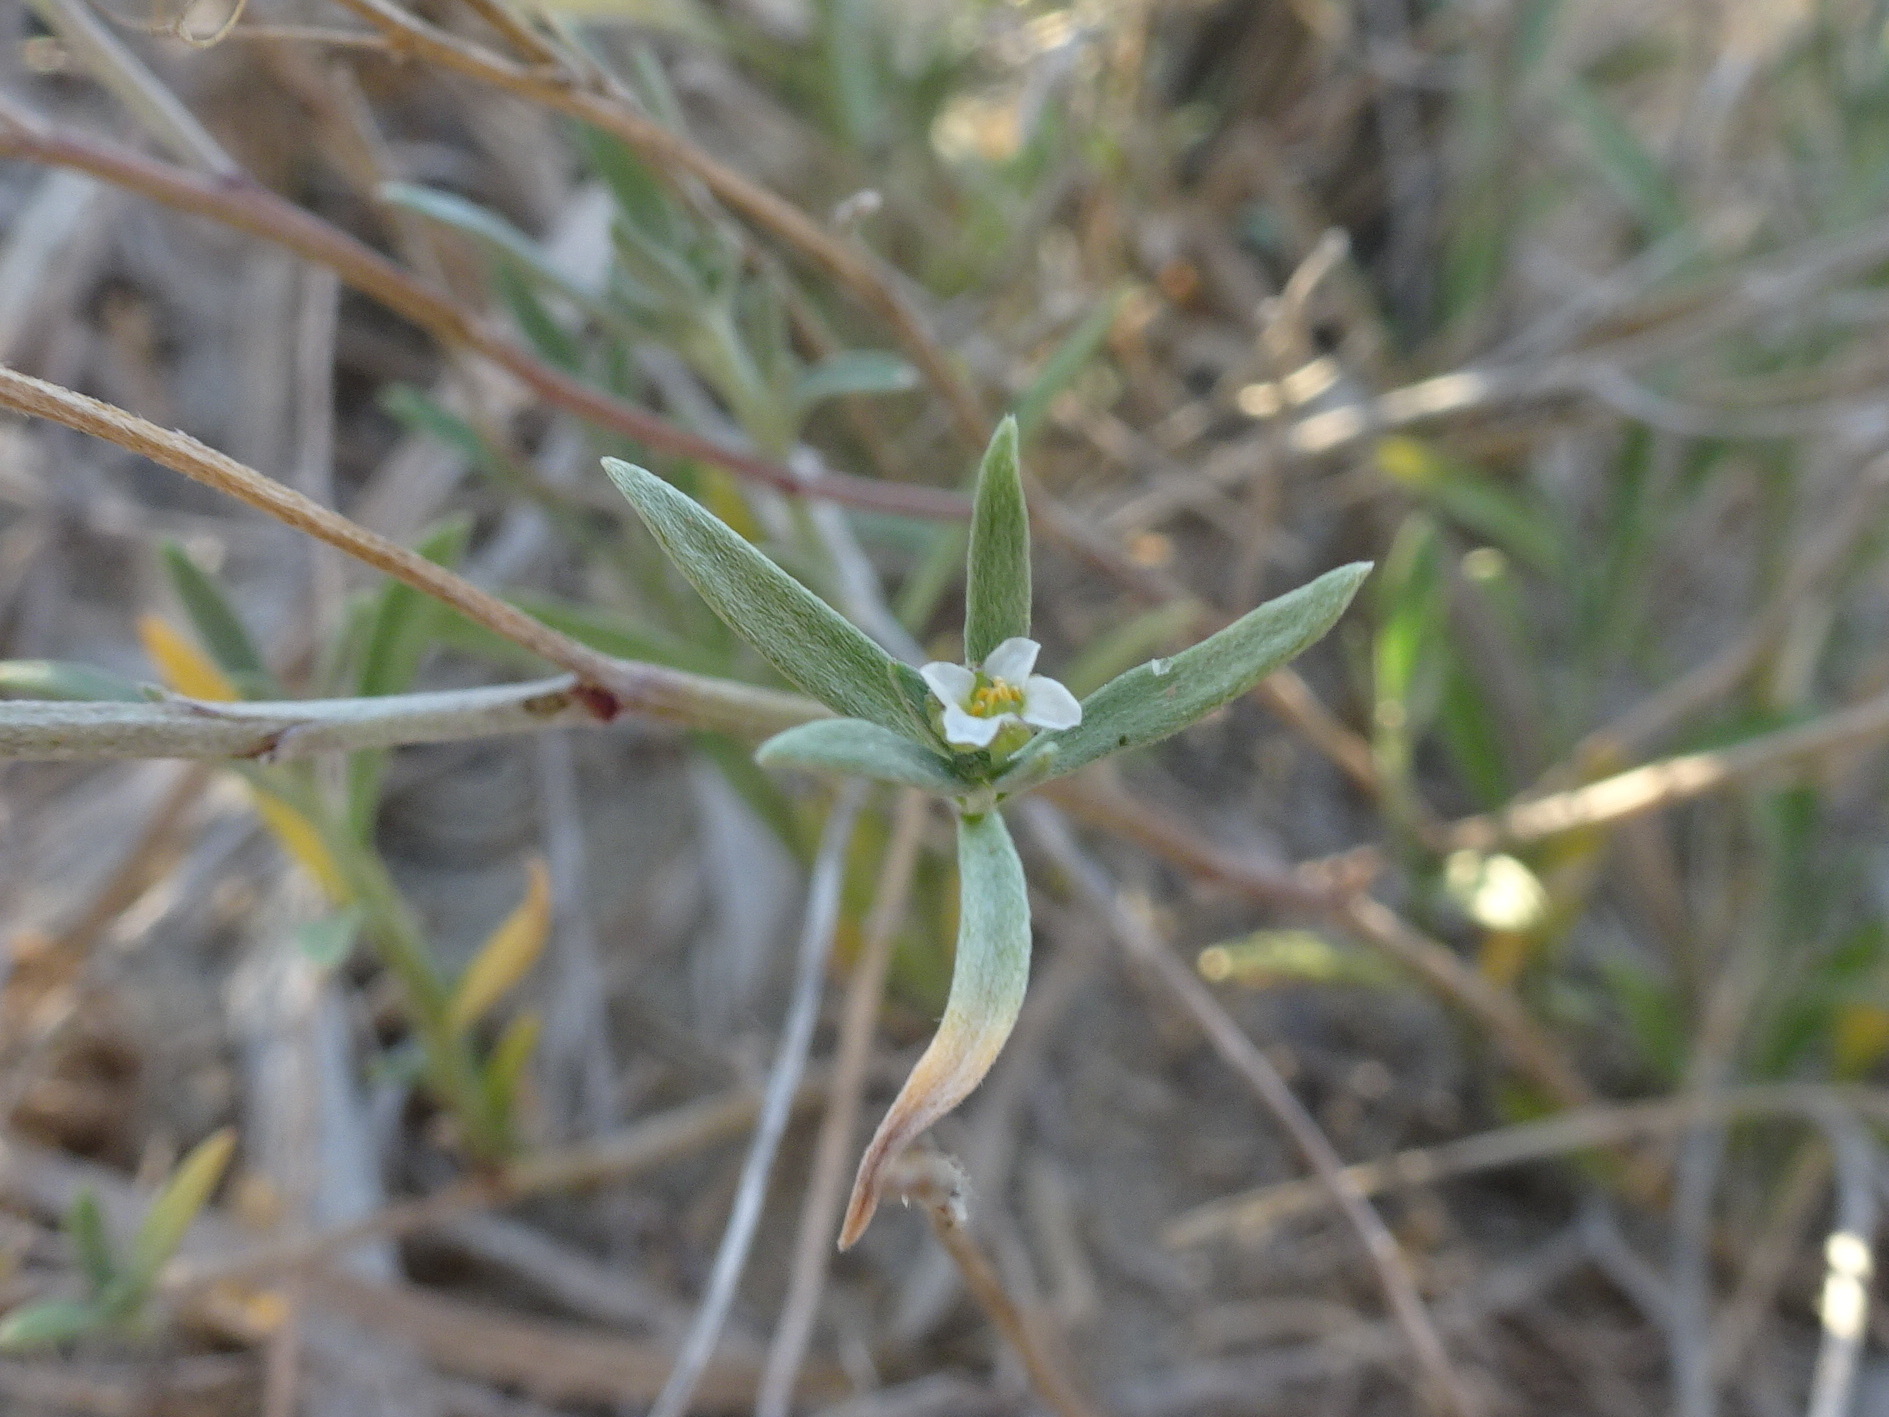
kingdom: Plantae
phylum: Tracheophyta
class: Magnoliopsida
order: Brassicales
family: Brassicaceae
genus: Lobularia
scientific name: Lobularia maritima
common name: Sweet alison
